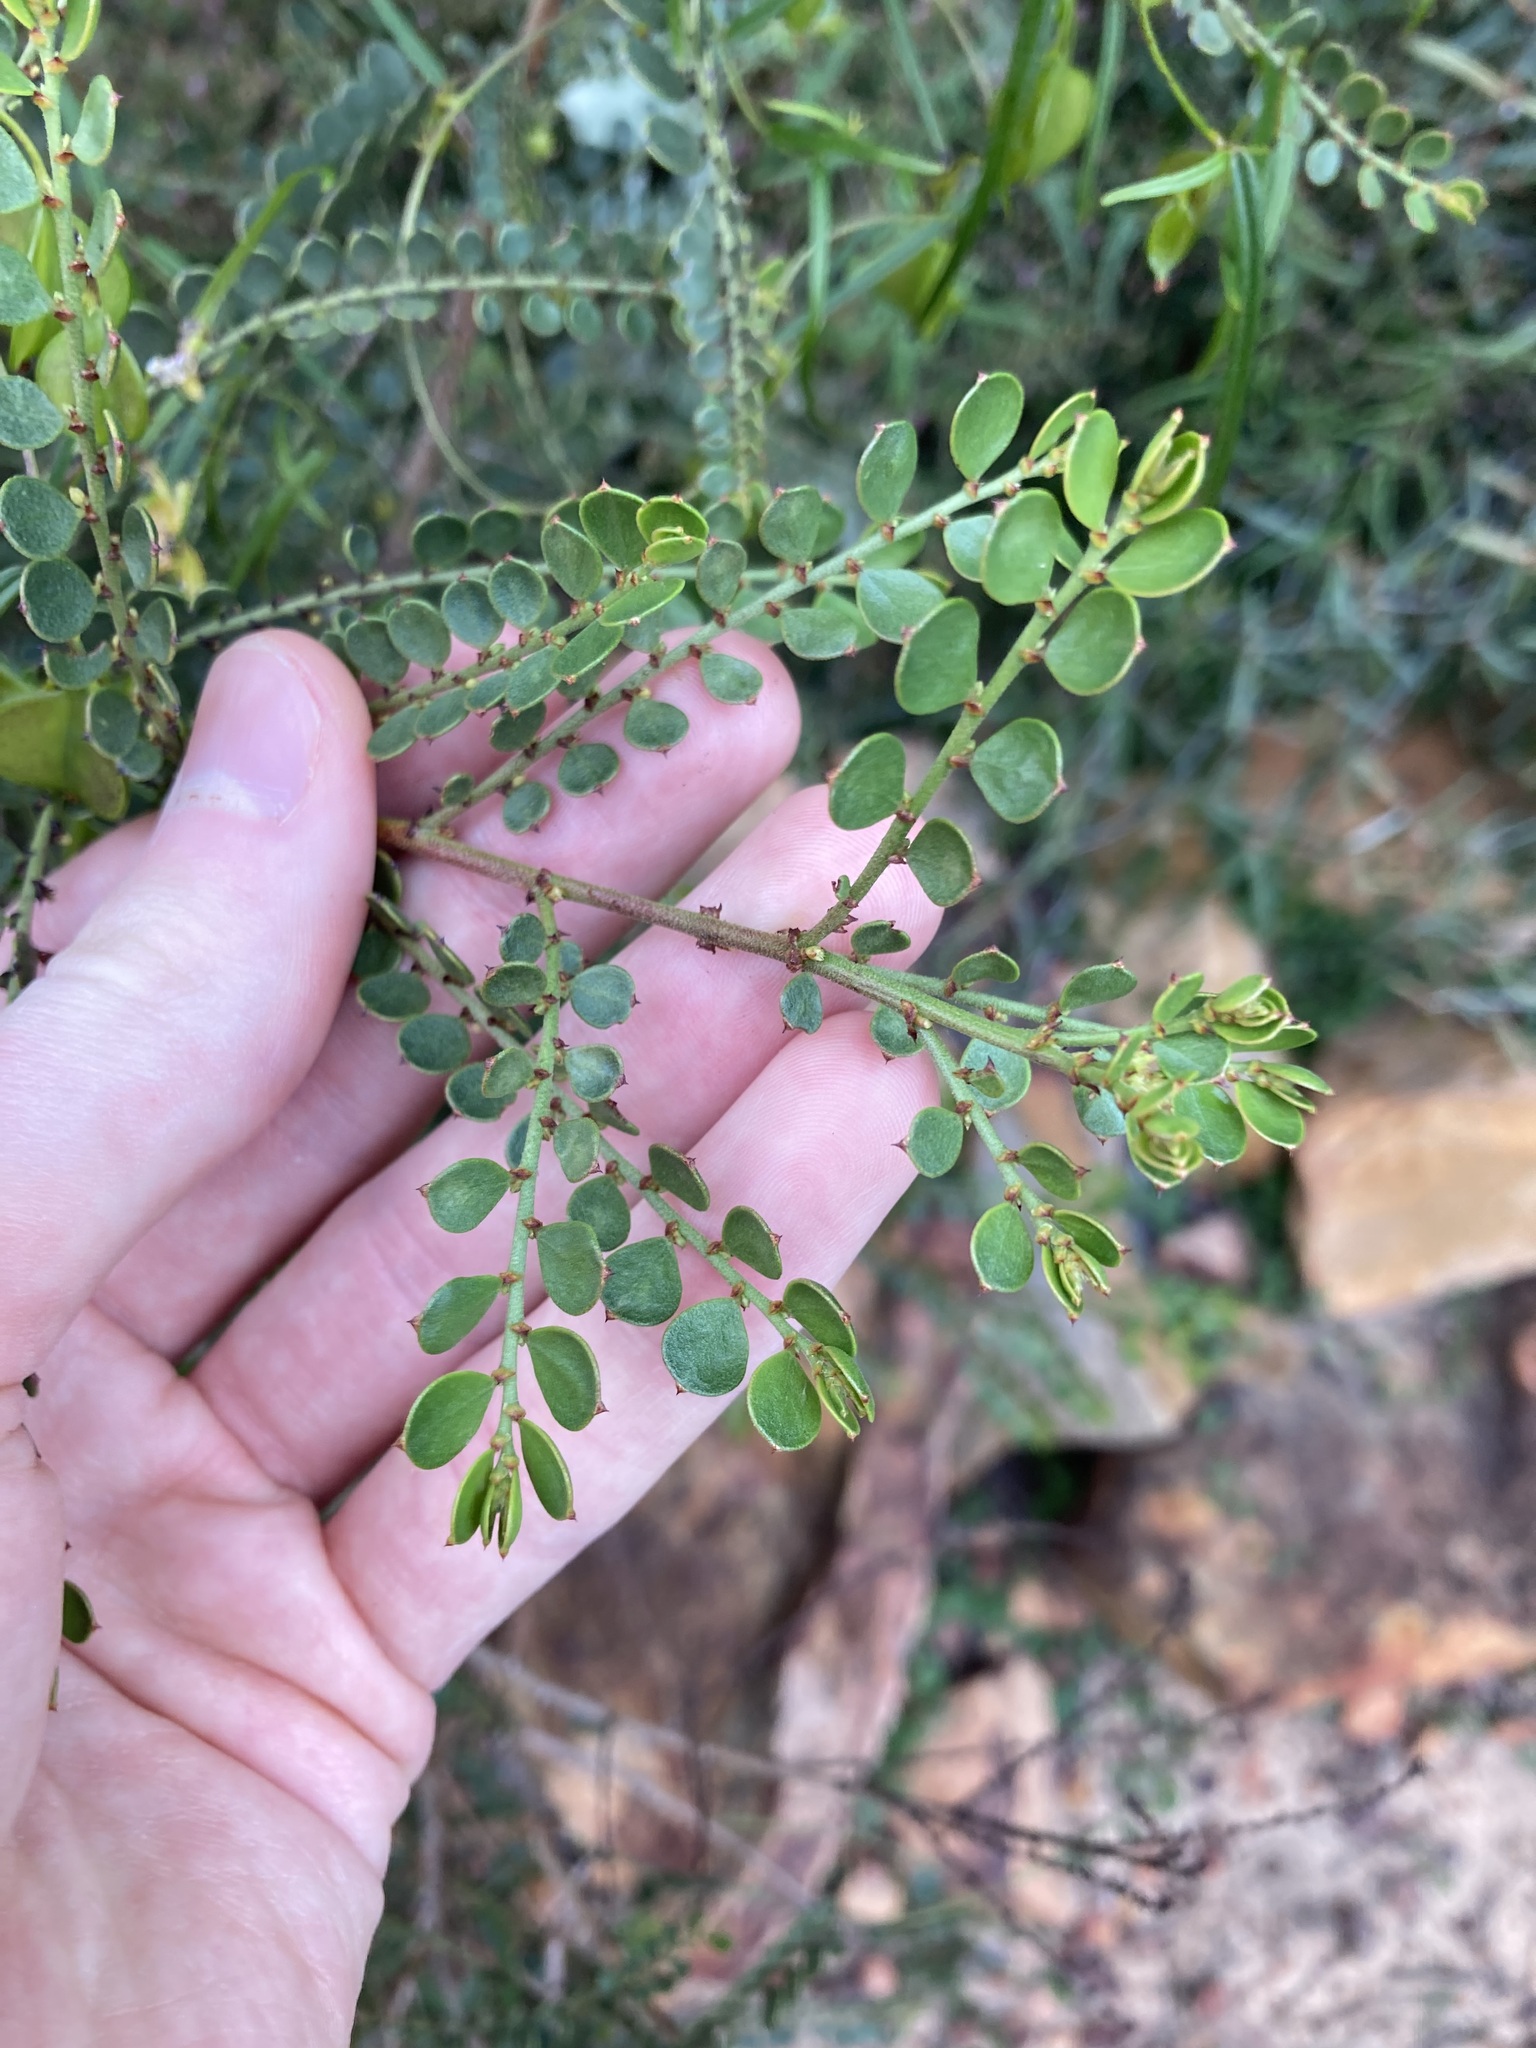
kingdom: Plantae
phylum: Tracheophyta
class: Magnoliopsida
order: Malpighiales
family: Phyllanthaceae
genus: Synostemon
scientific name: Synostemon crassifolius
